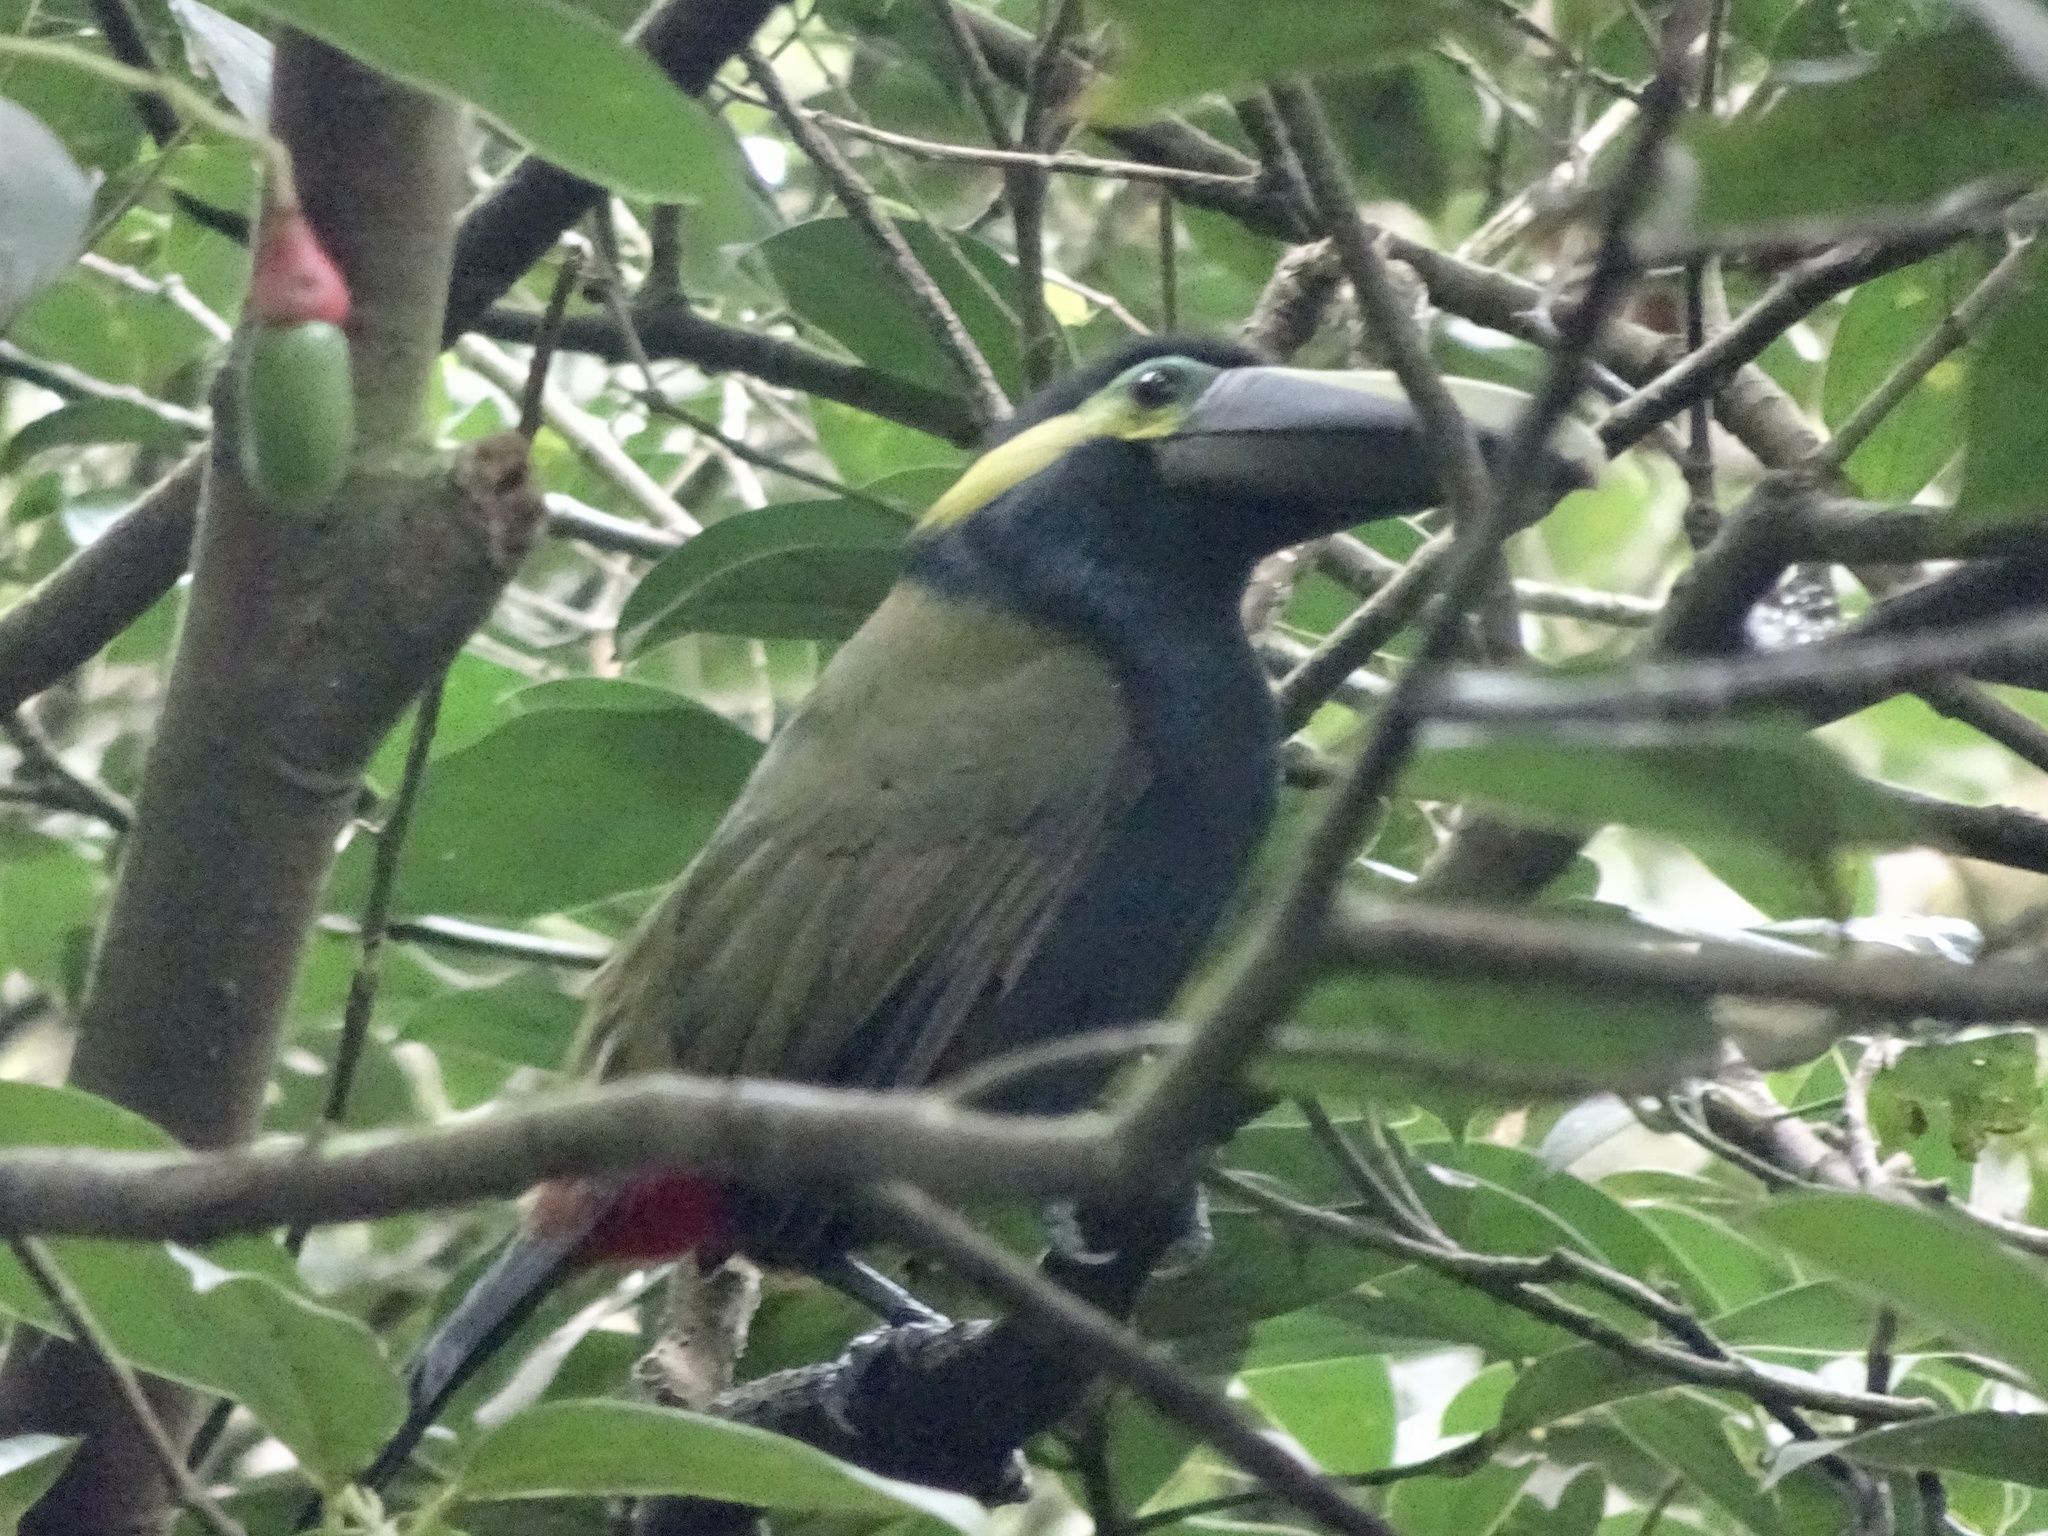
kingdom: Animalia
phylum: Chordata
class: Aves
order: Piciformes
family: Ramphastidae
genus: Selenidera
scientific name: Selenidera spectabilis
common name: Yellow-eared toucanet
